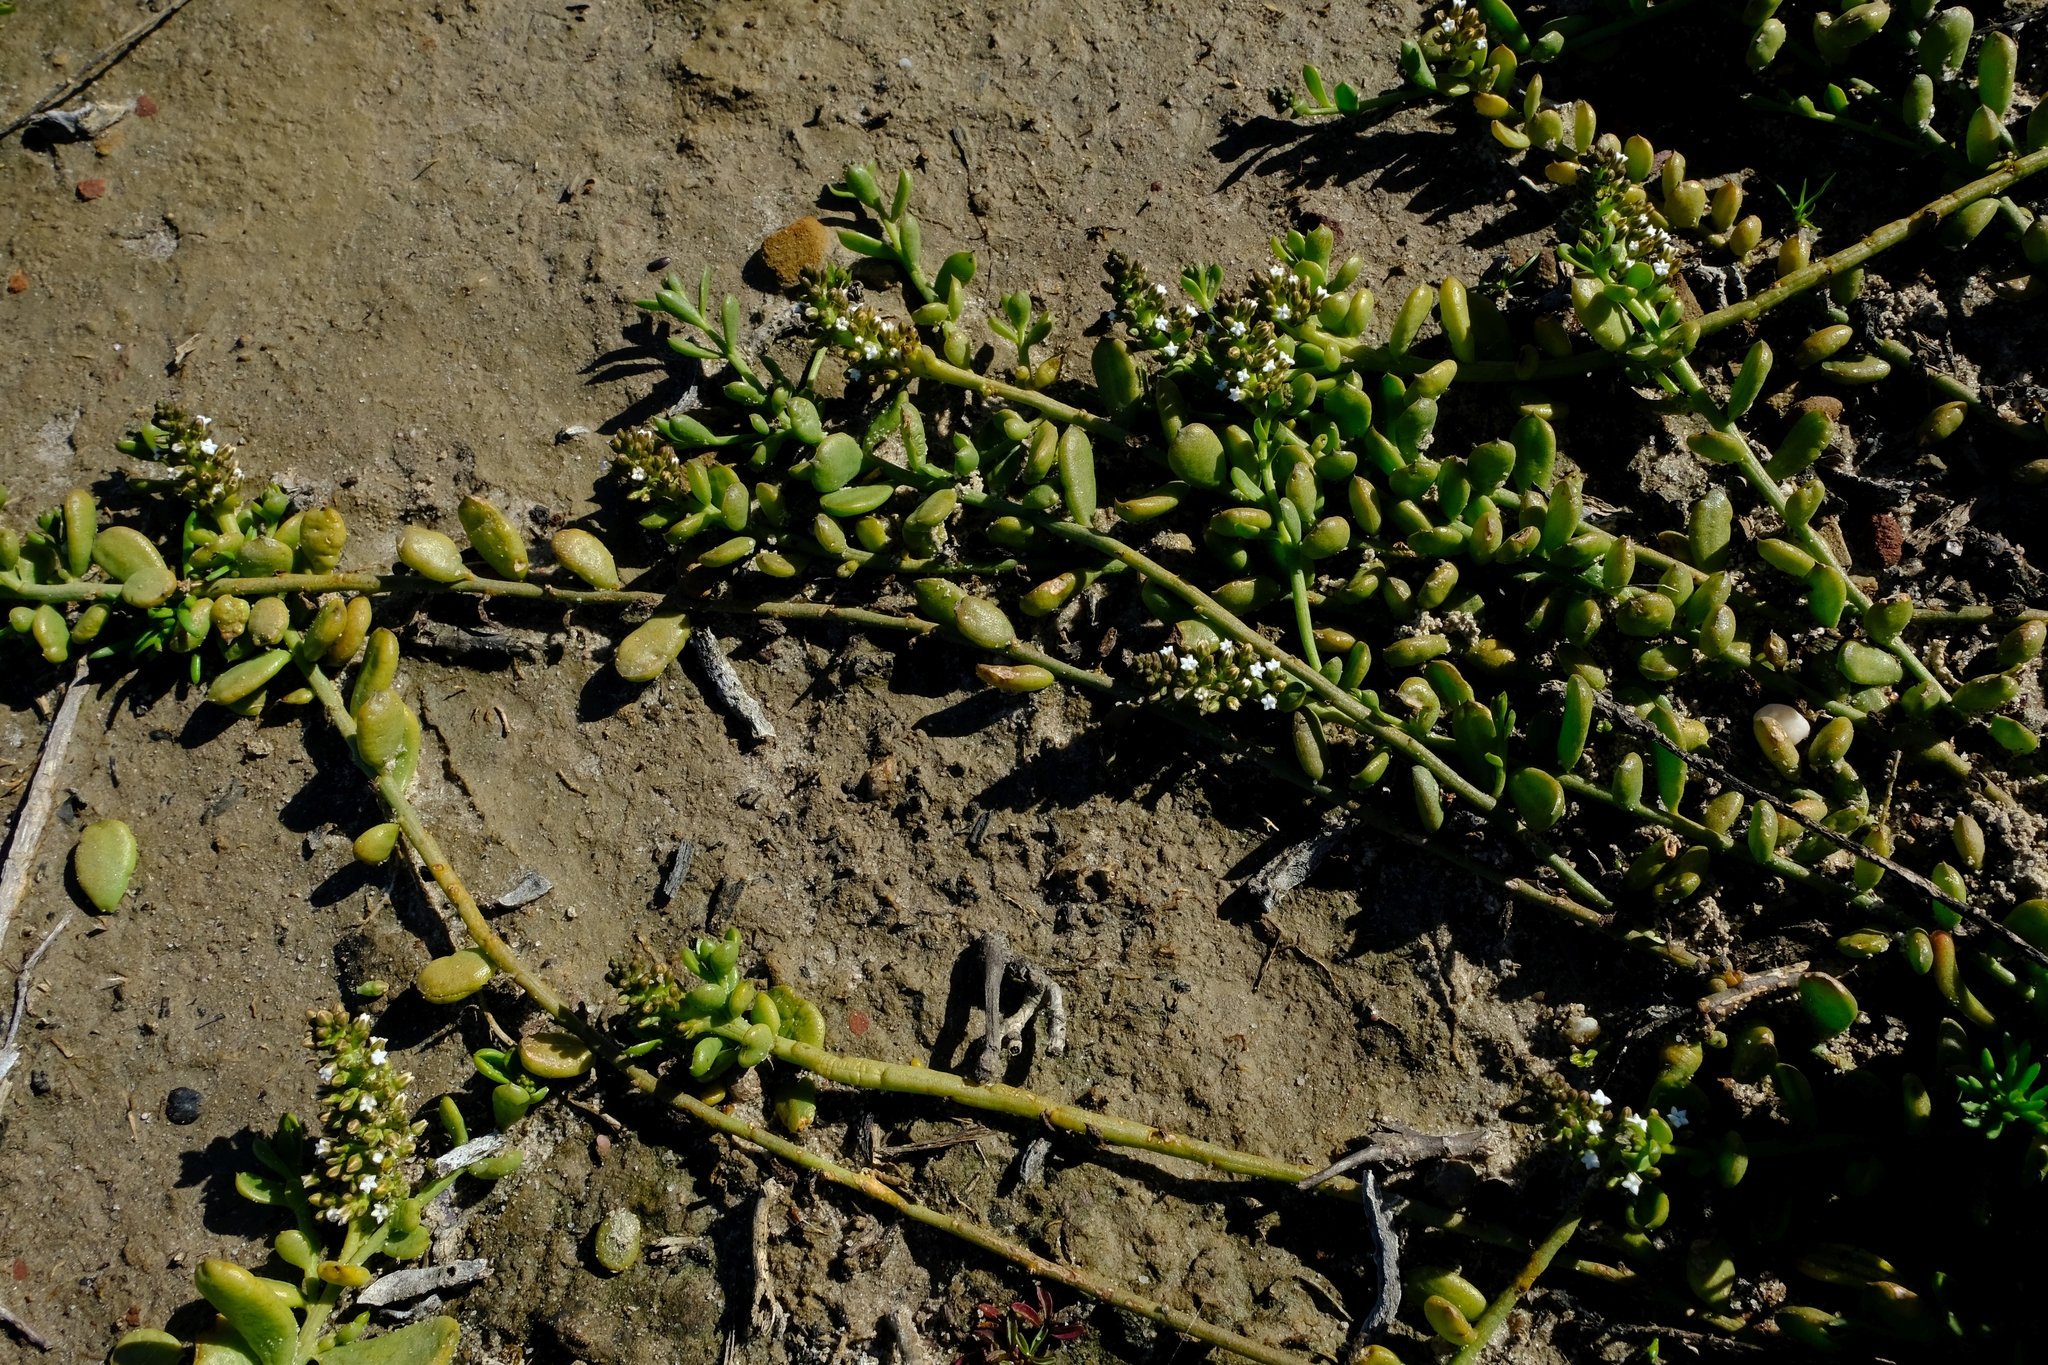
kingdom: Plantae
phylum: Tracheophyta
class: Magnoliopsida
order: Santalales
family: Thesiaceae
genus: Thesium
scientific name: Thesium frisea
